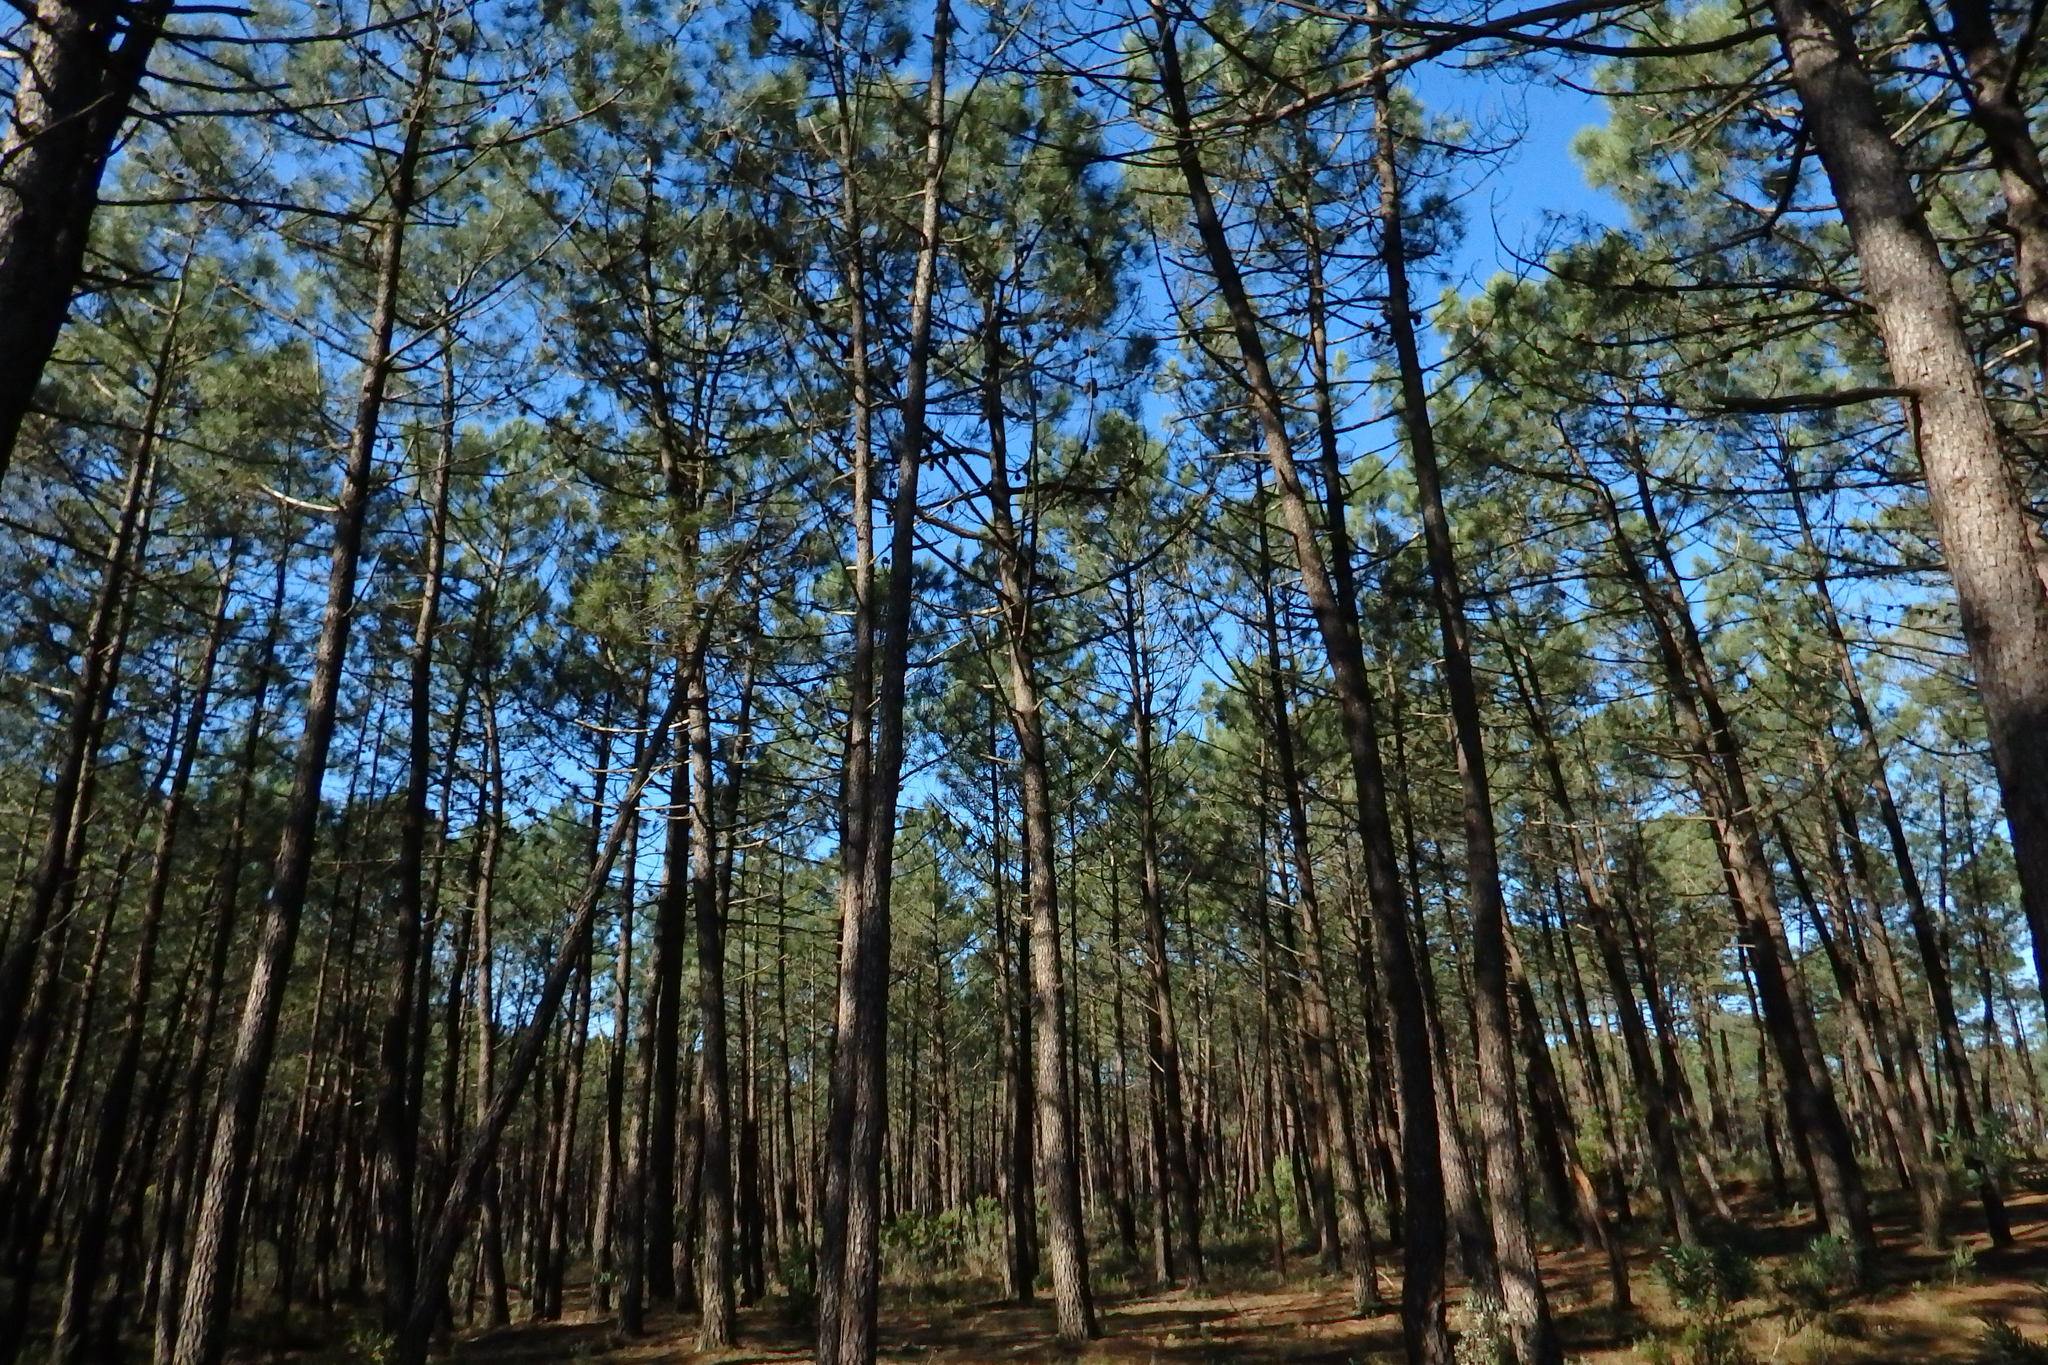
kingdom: Plantae
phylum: Tracheophyta
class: Pinopsida
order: Pinales
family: Pinaceae
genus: Pinus
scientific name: Pinus pinaster
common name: Maritime pine
